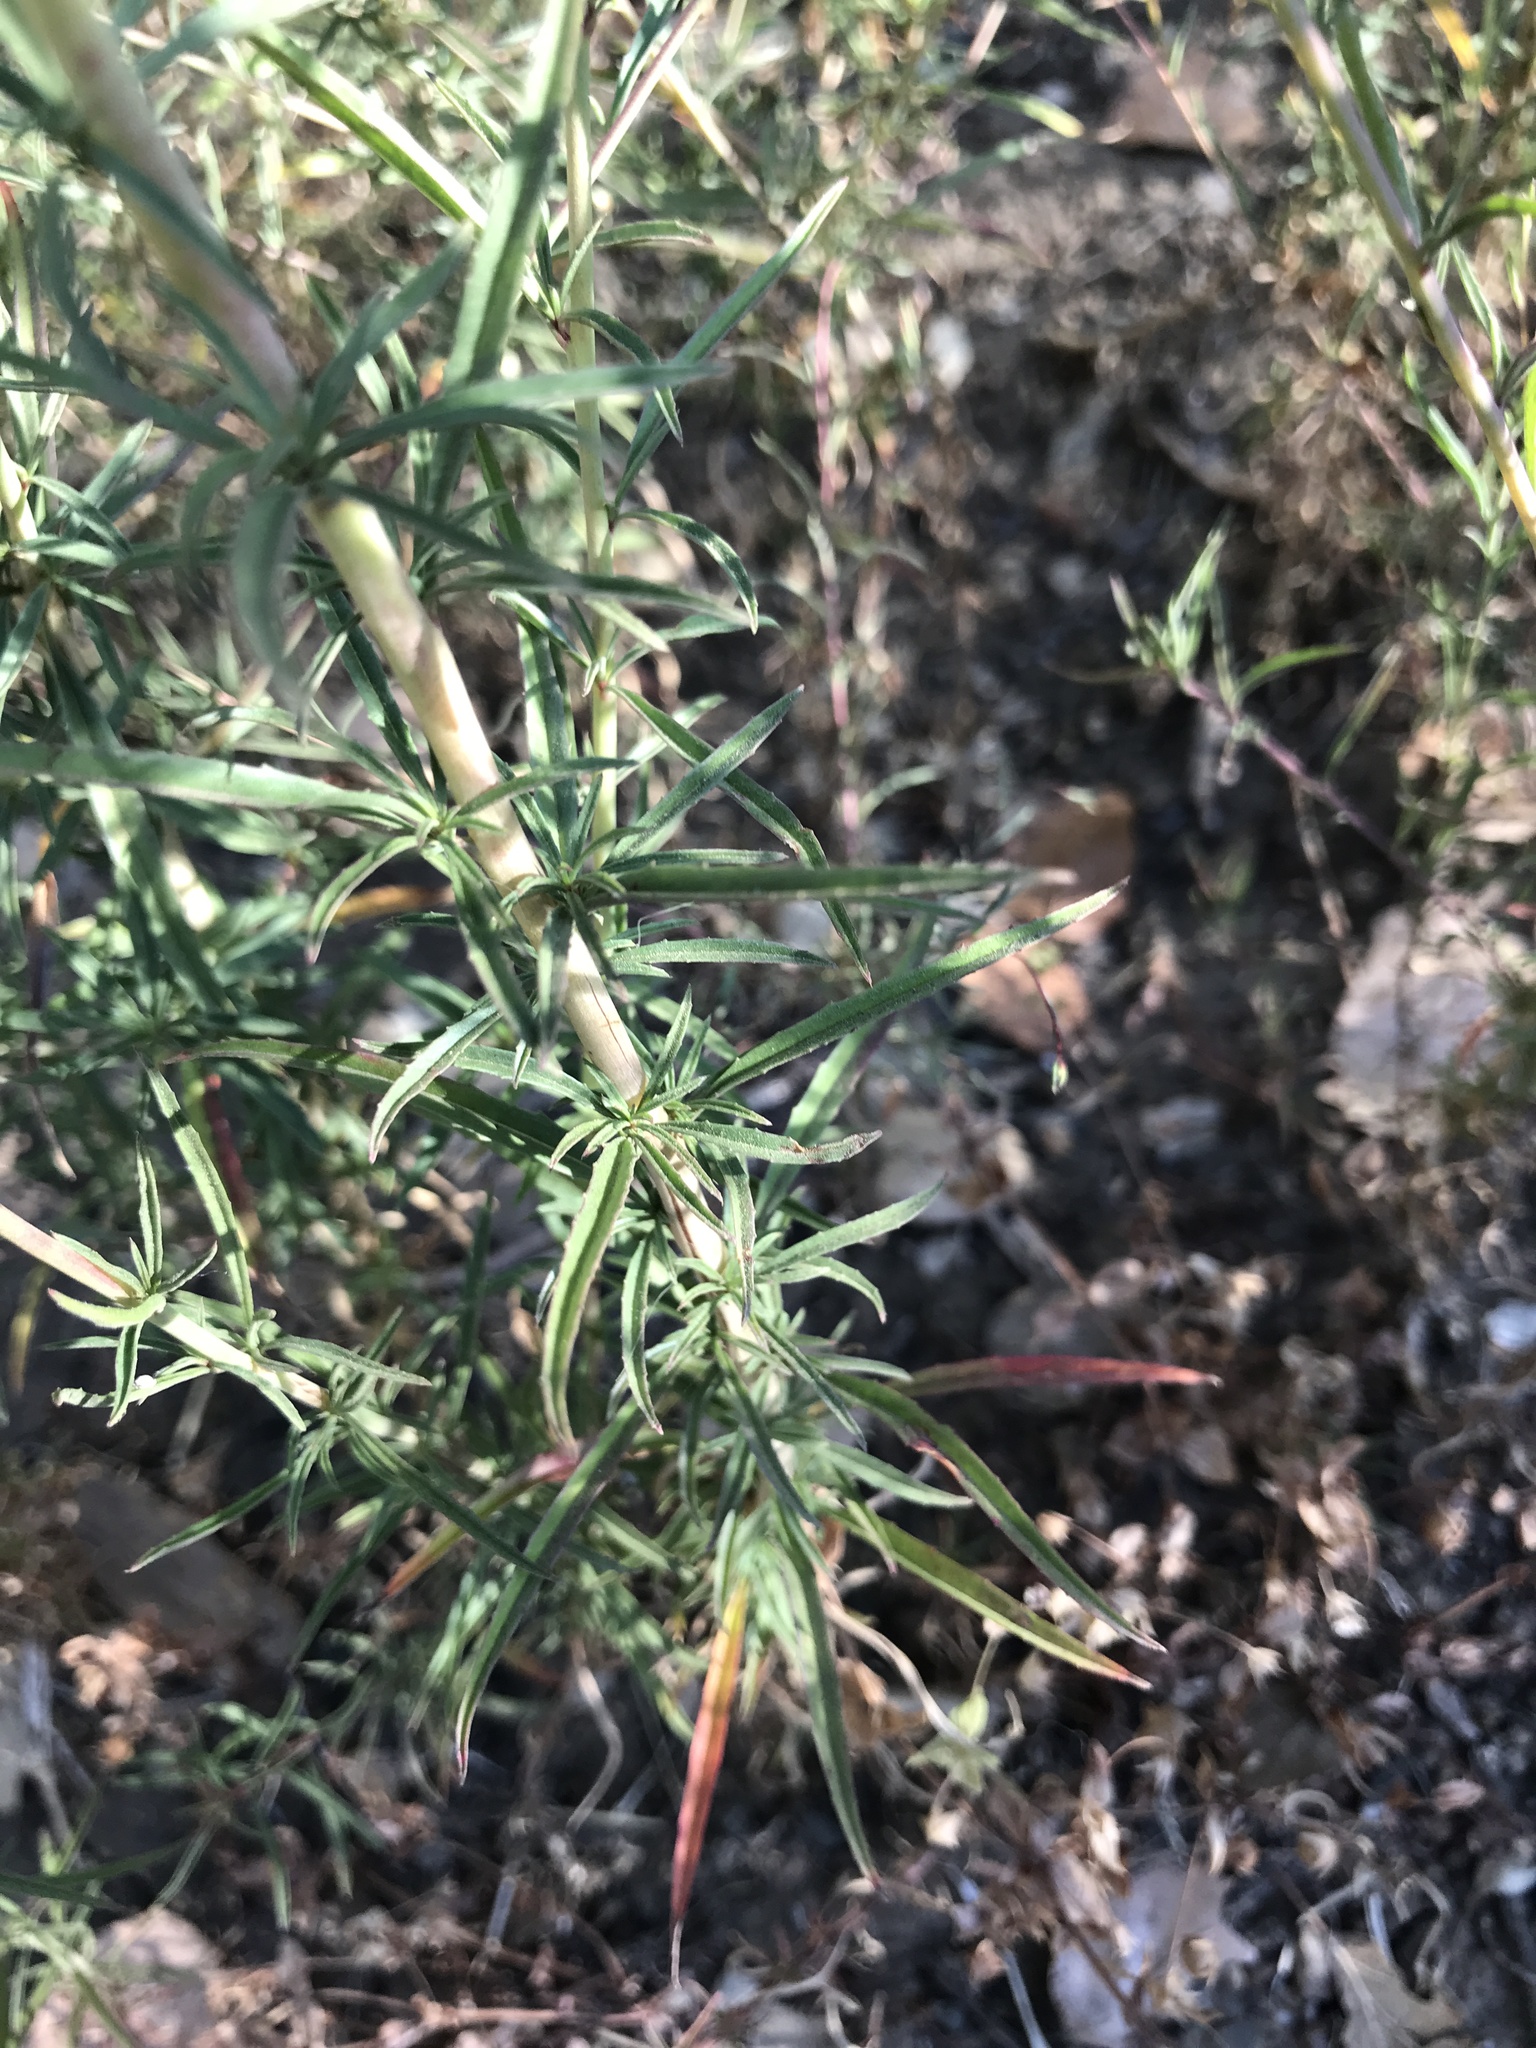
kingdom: Plantae
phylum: Tracheophyta
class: Magnoliopsida
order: Myrtales
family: Onagraceae
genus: Epilobium
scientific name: Epilobium brachycarpum
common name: Annual willowherb
